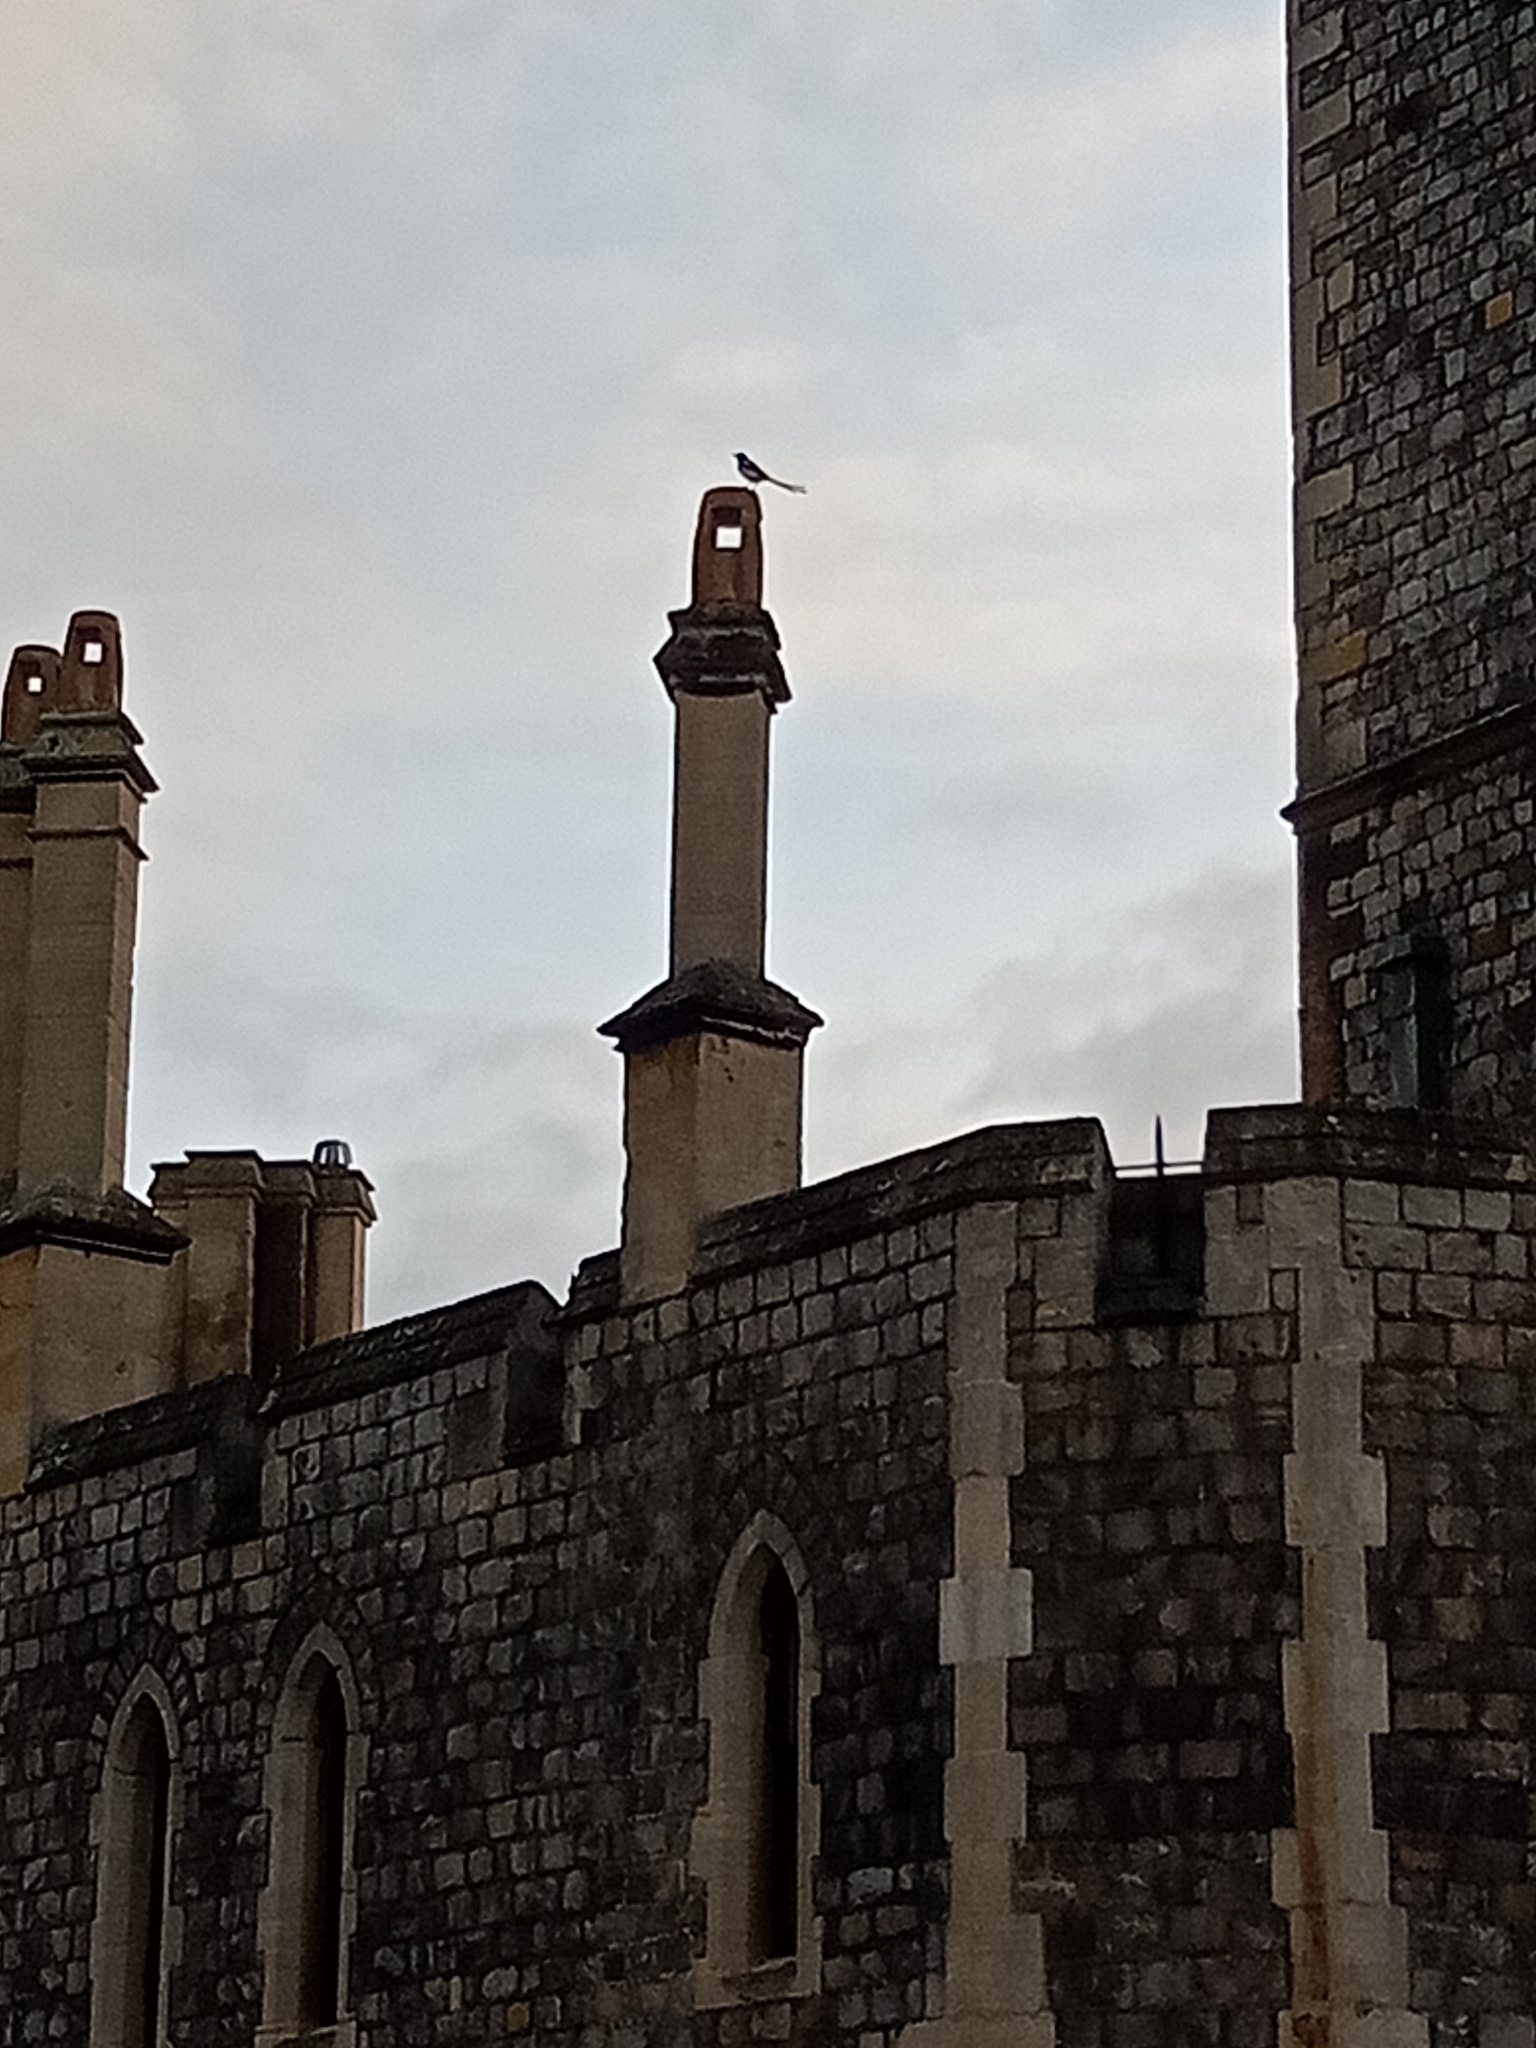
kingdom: Animalia
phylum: Chordata
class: Aves
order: Passeriformes
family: Corvidae
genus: Pica
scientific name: Pica pica
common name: Eurasian magpie
